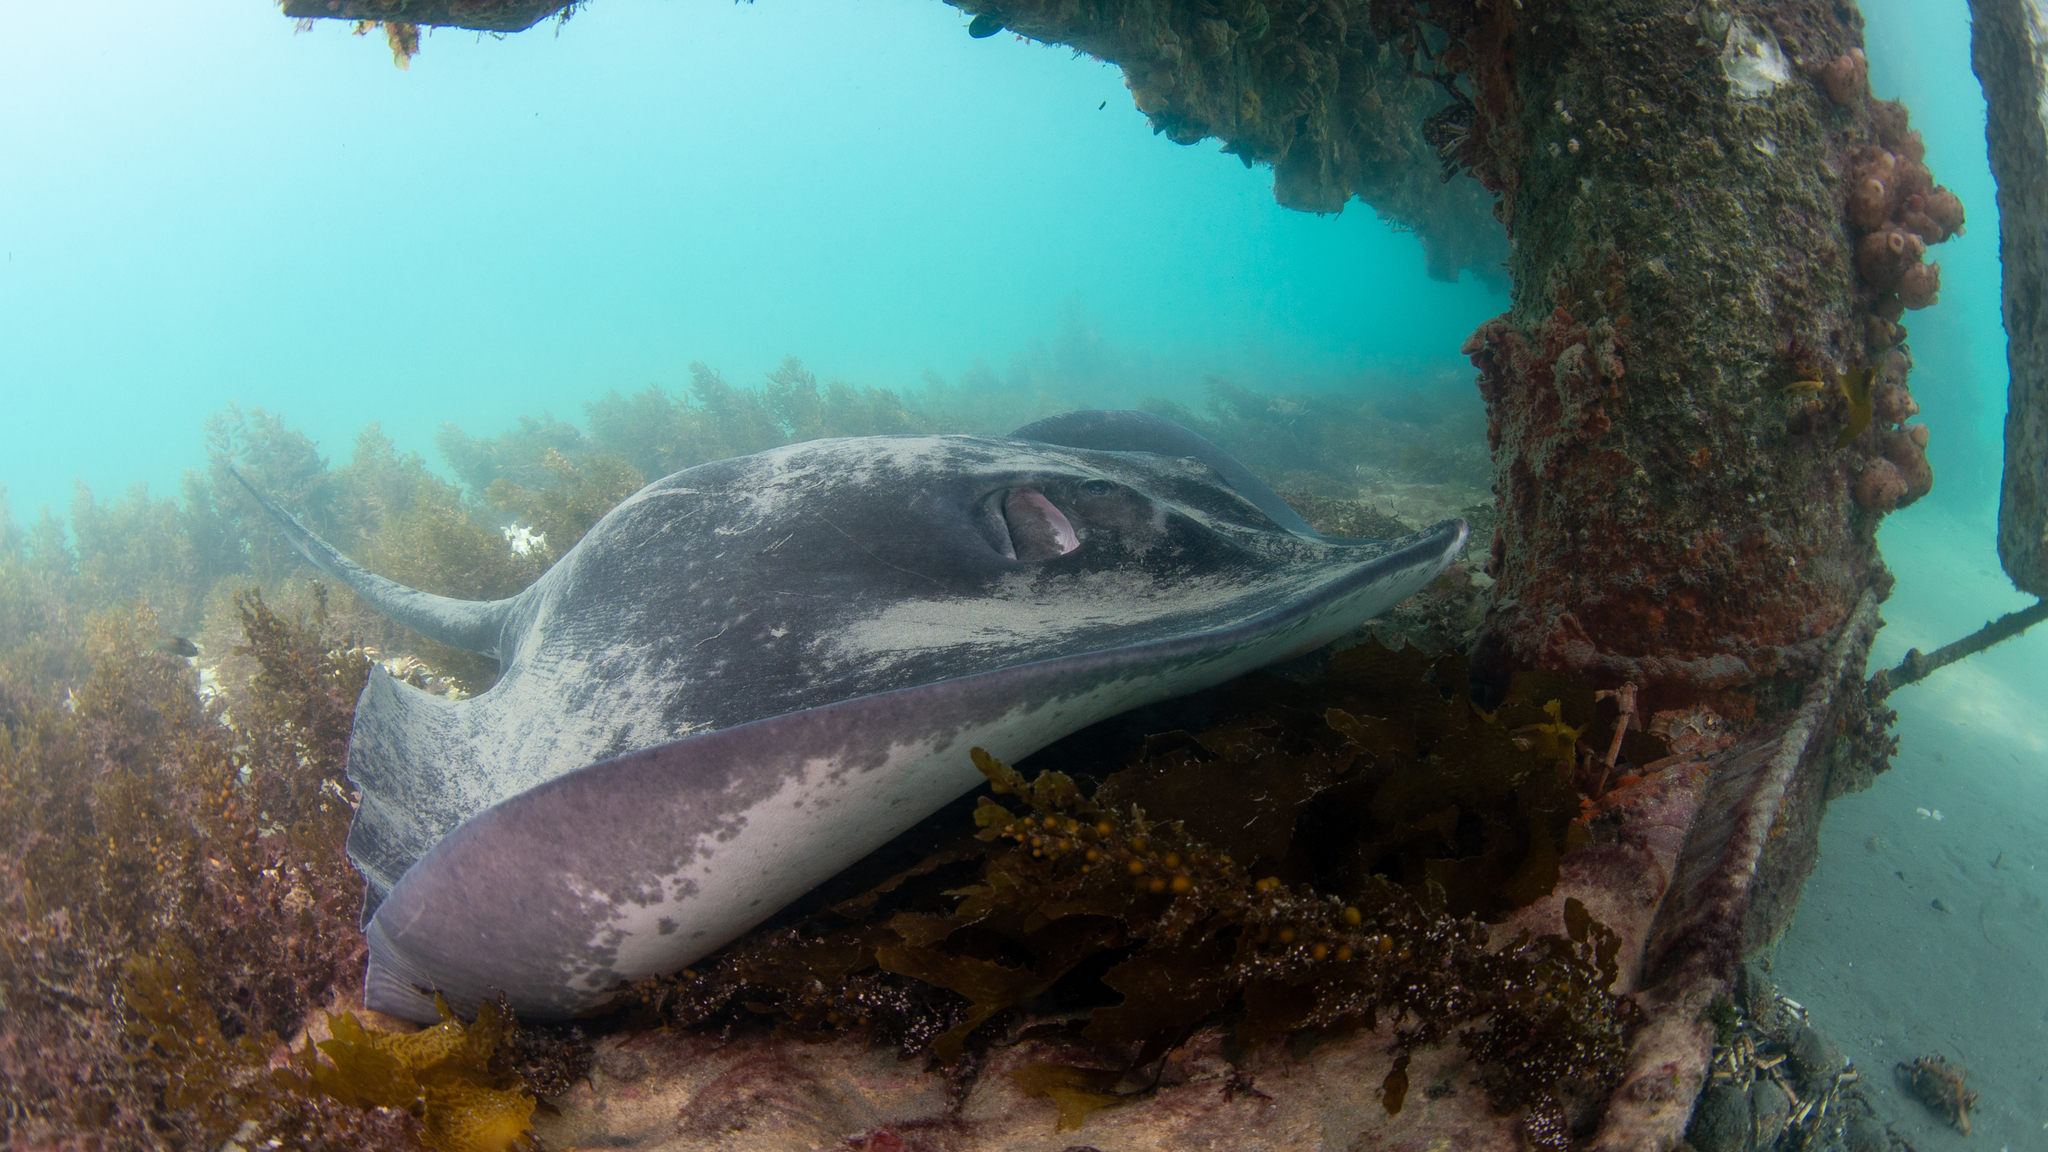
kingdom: Animalia
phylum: Chordata
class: Elasmobranchii
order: Myliobatiformes
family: Dasyatidae
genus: Bathytoshia
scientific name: Bathytoshia brevicaudata
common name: Short-tail stingray
